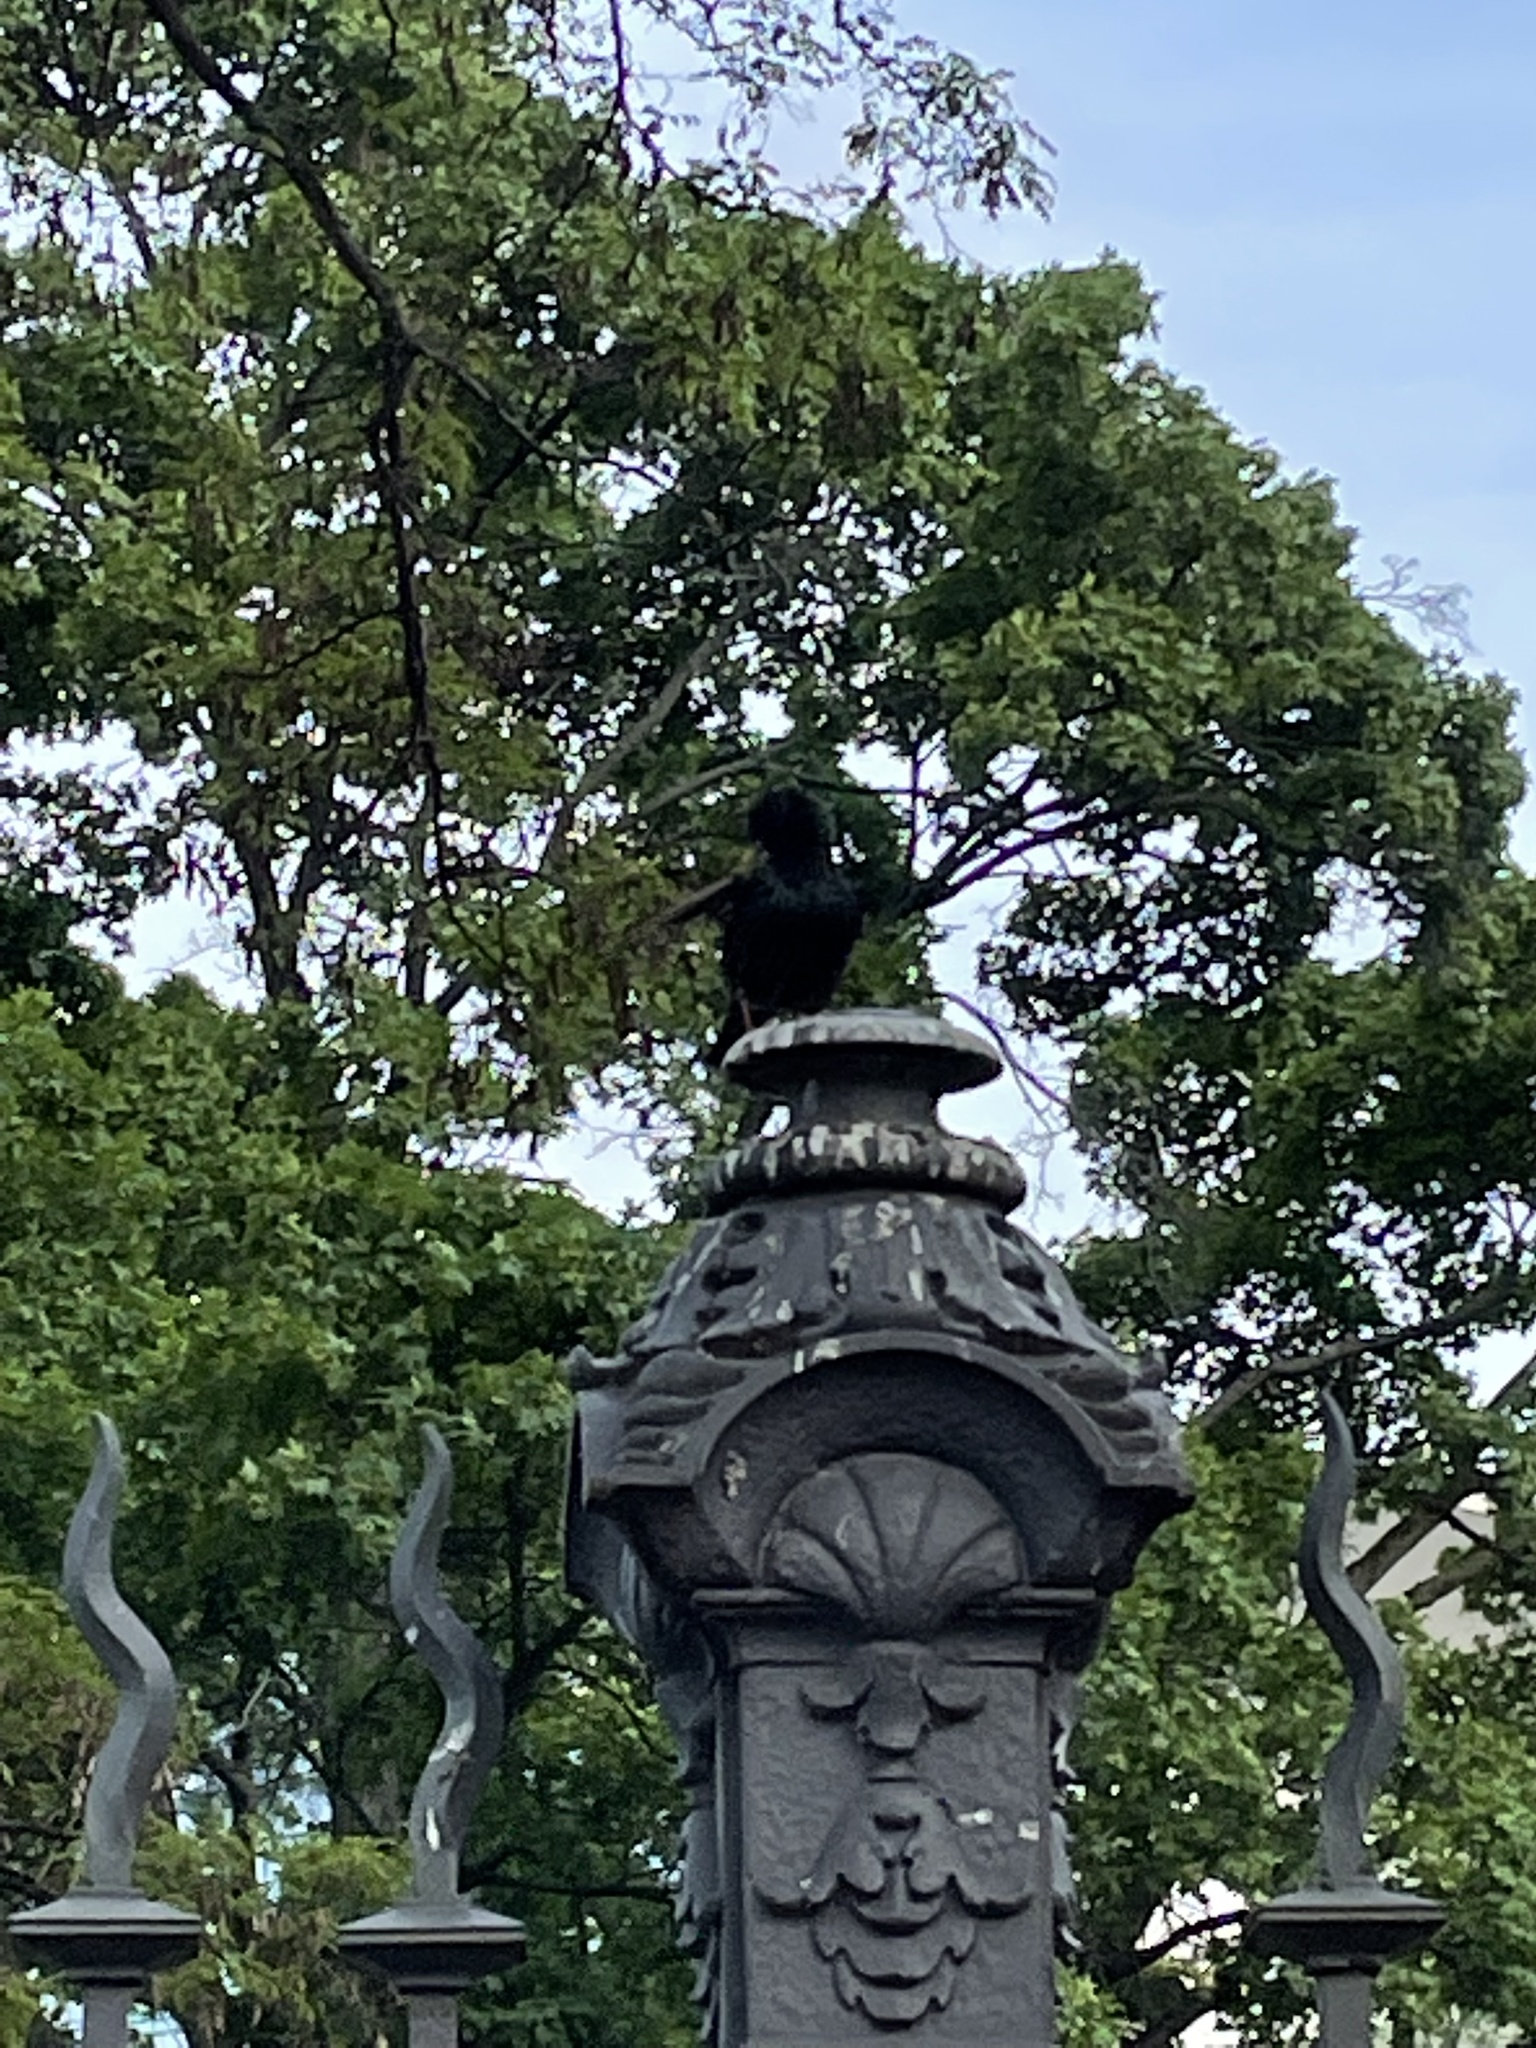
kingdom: Animalia
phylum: Chordata
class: Aves
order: Passeriformes
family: Sturnidae
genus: Sturnus
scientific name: Sturnus vulgaris
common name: Common starling
